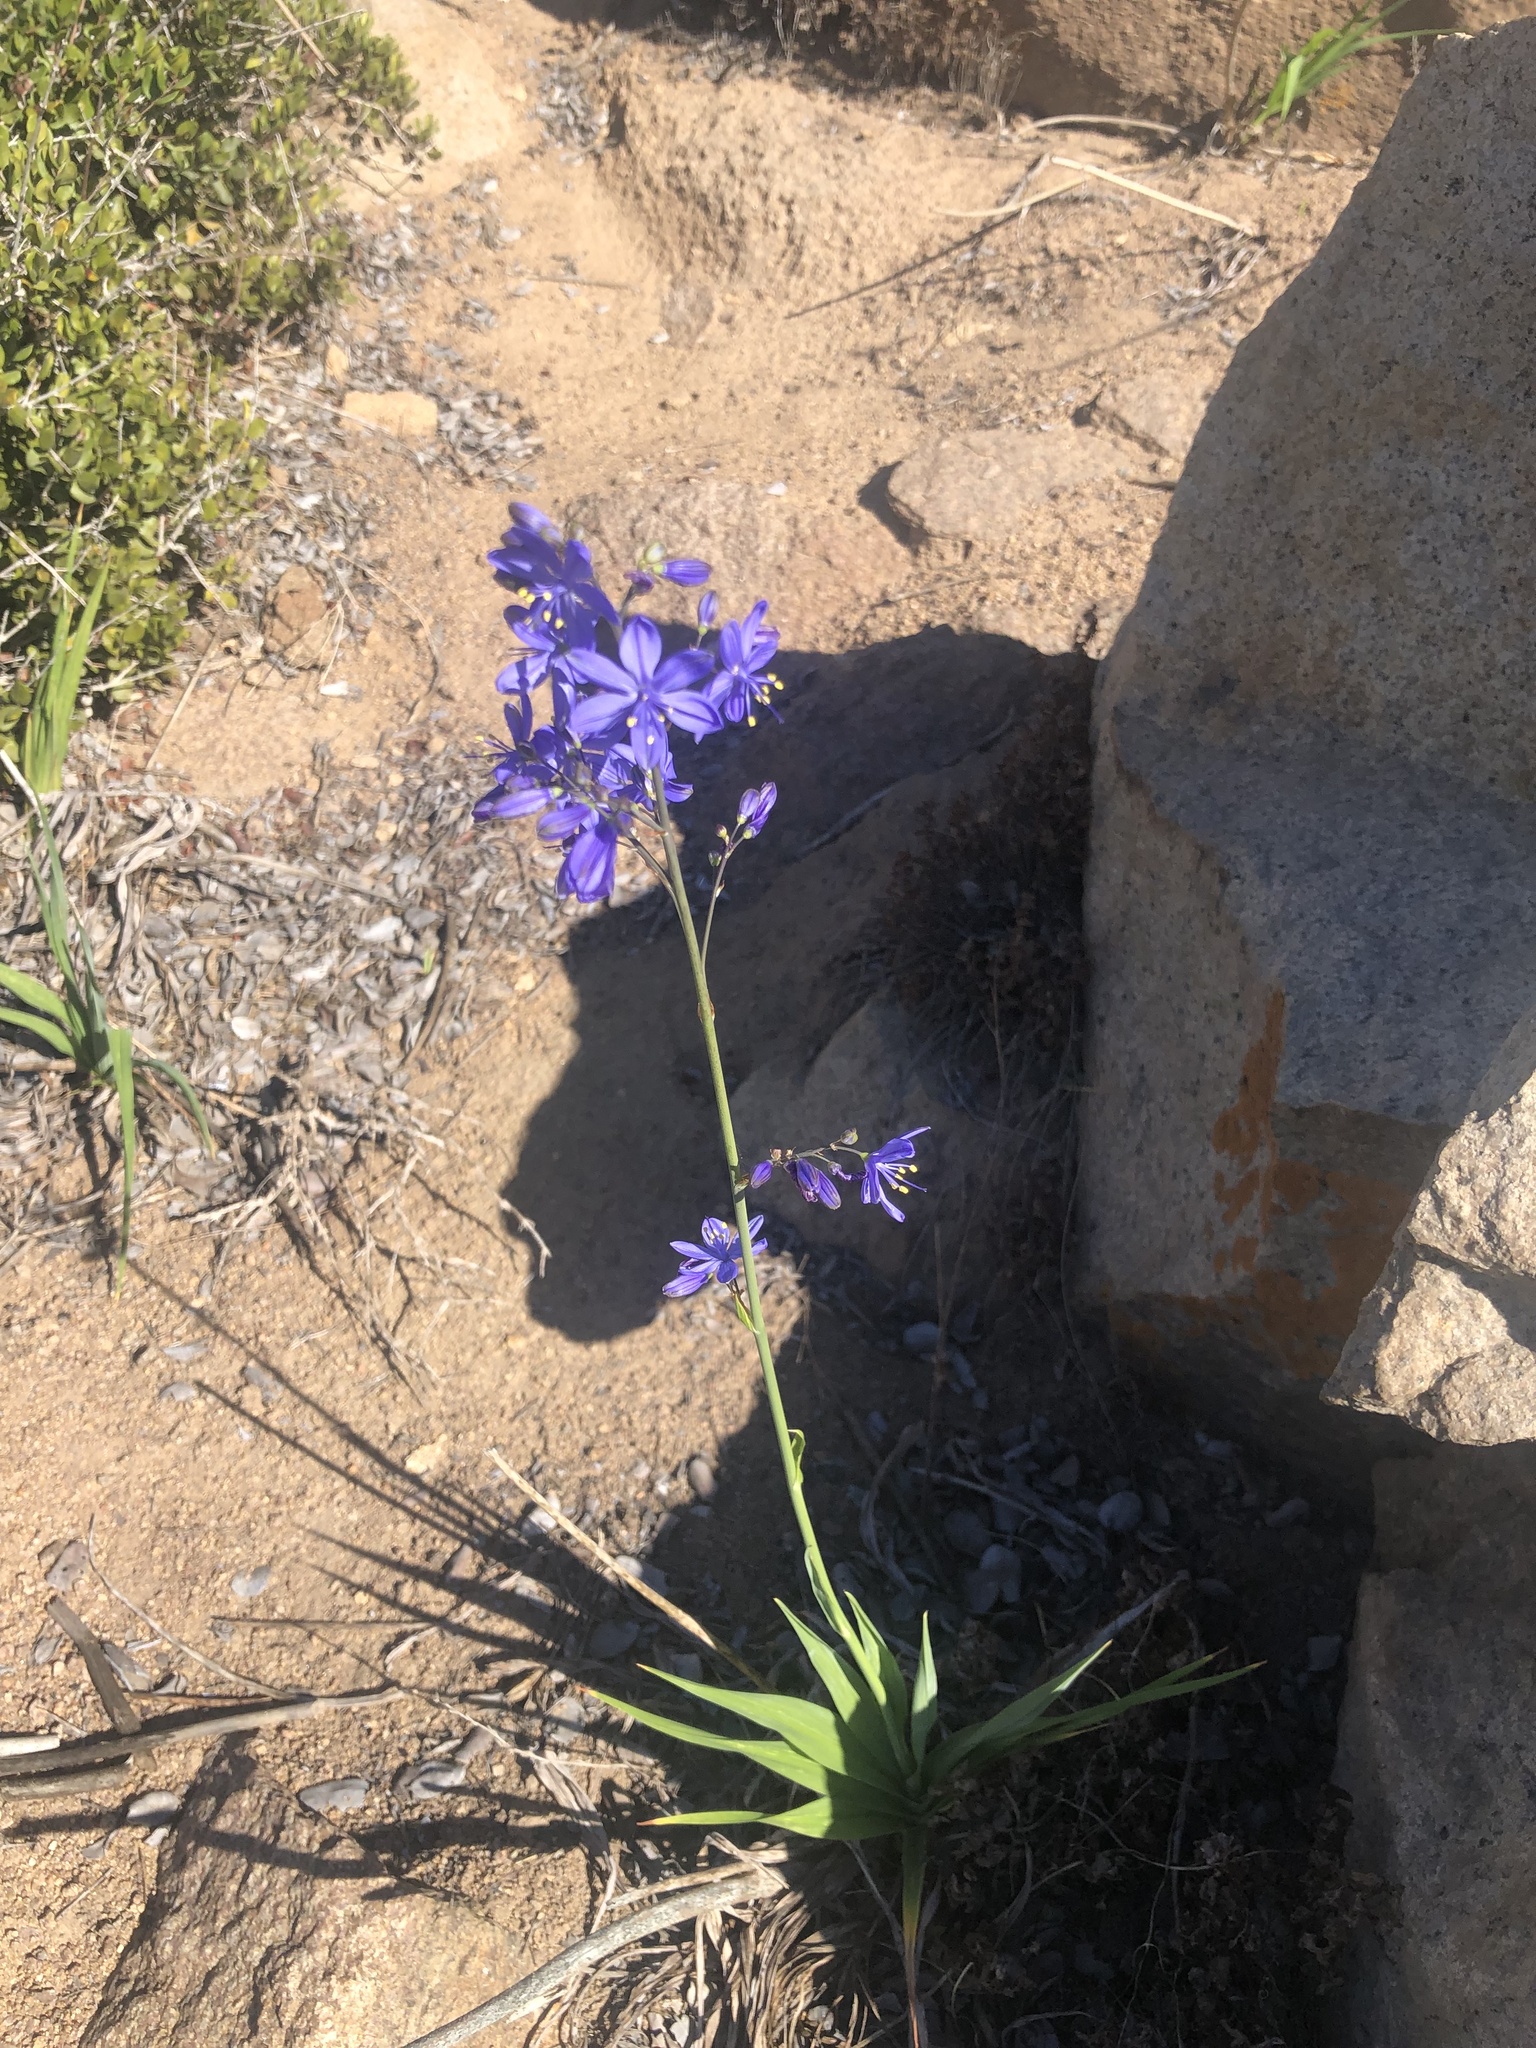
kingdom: Plantae
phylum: Tracheophyta
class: Liliopsida
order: Asparagales
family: Asphodelaceae
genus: Pasithea
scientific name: Pasithea caerulea
